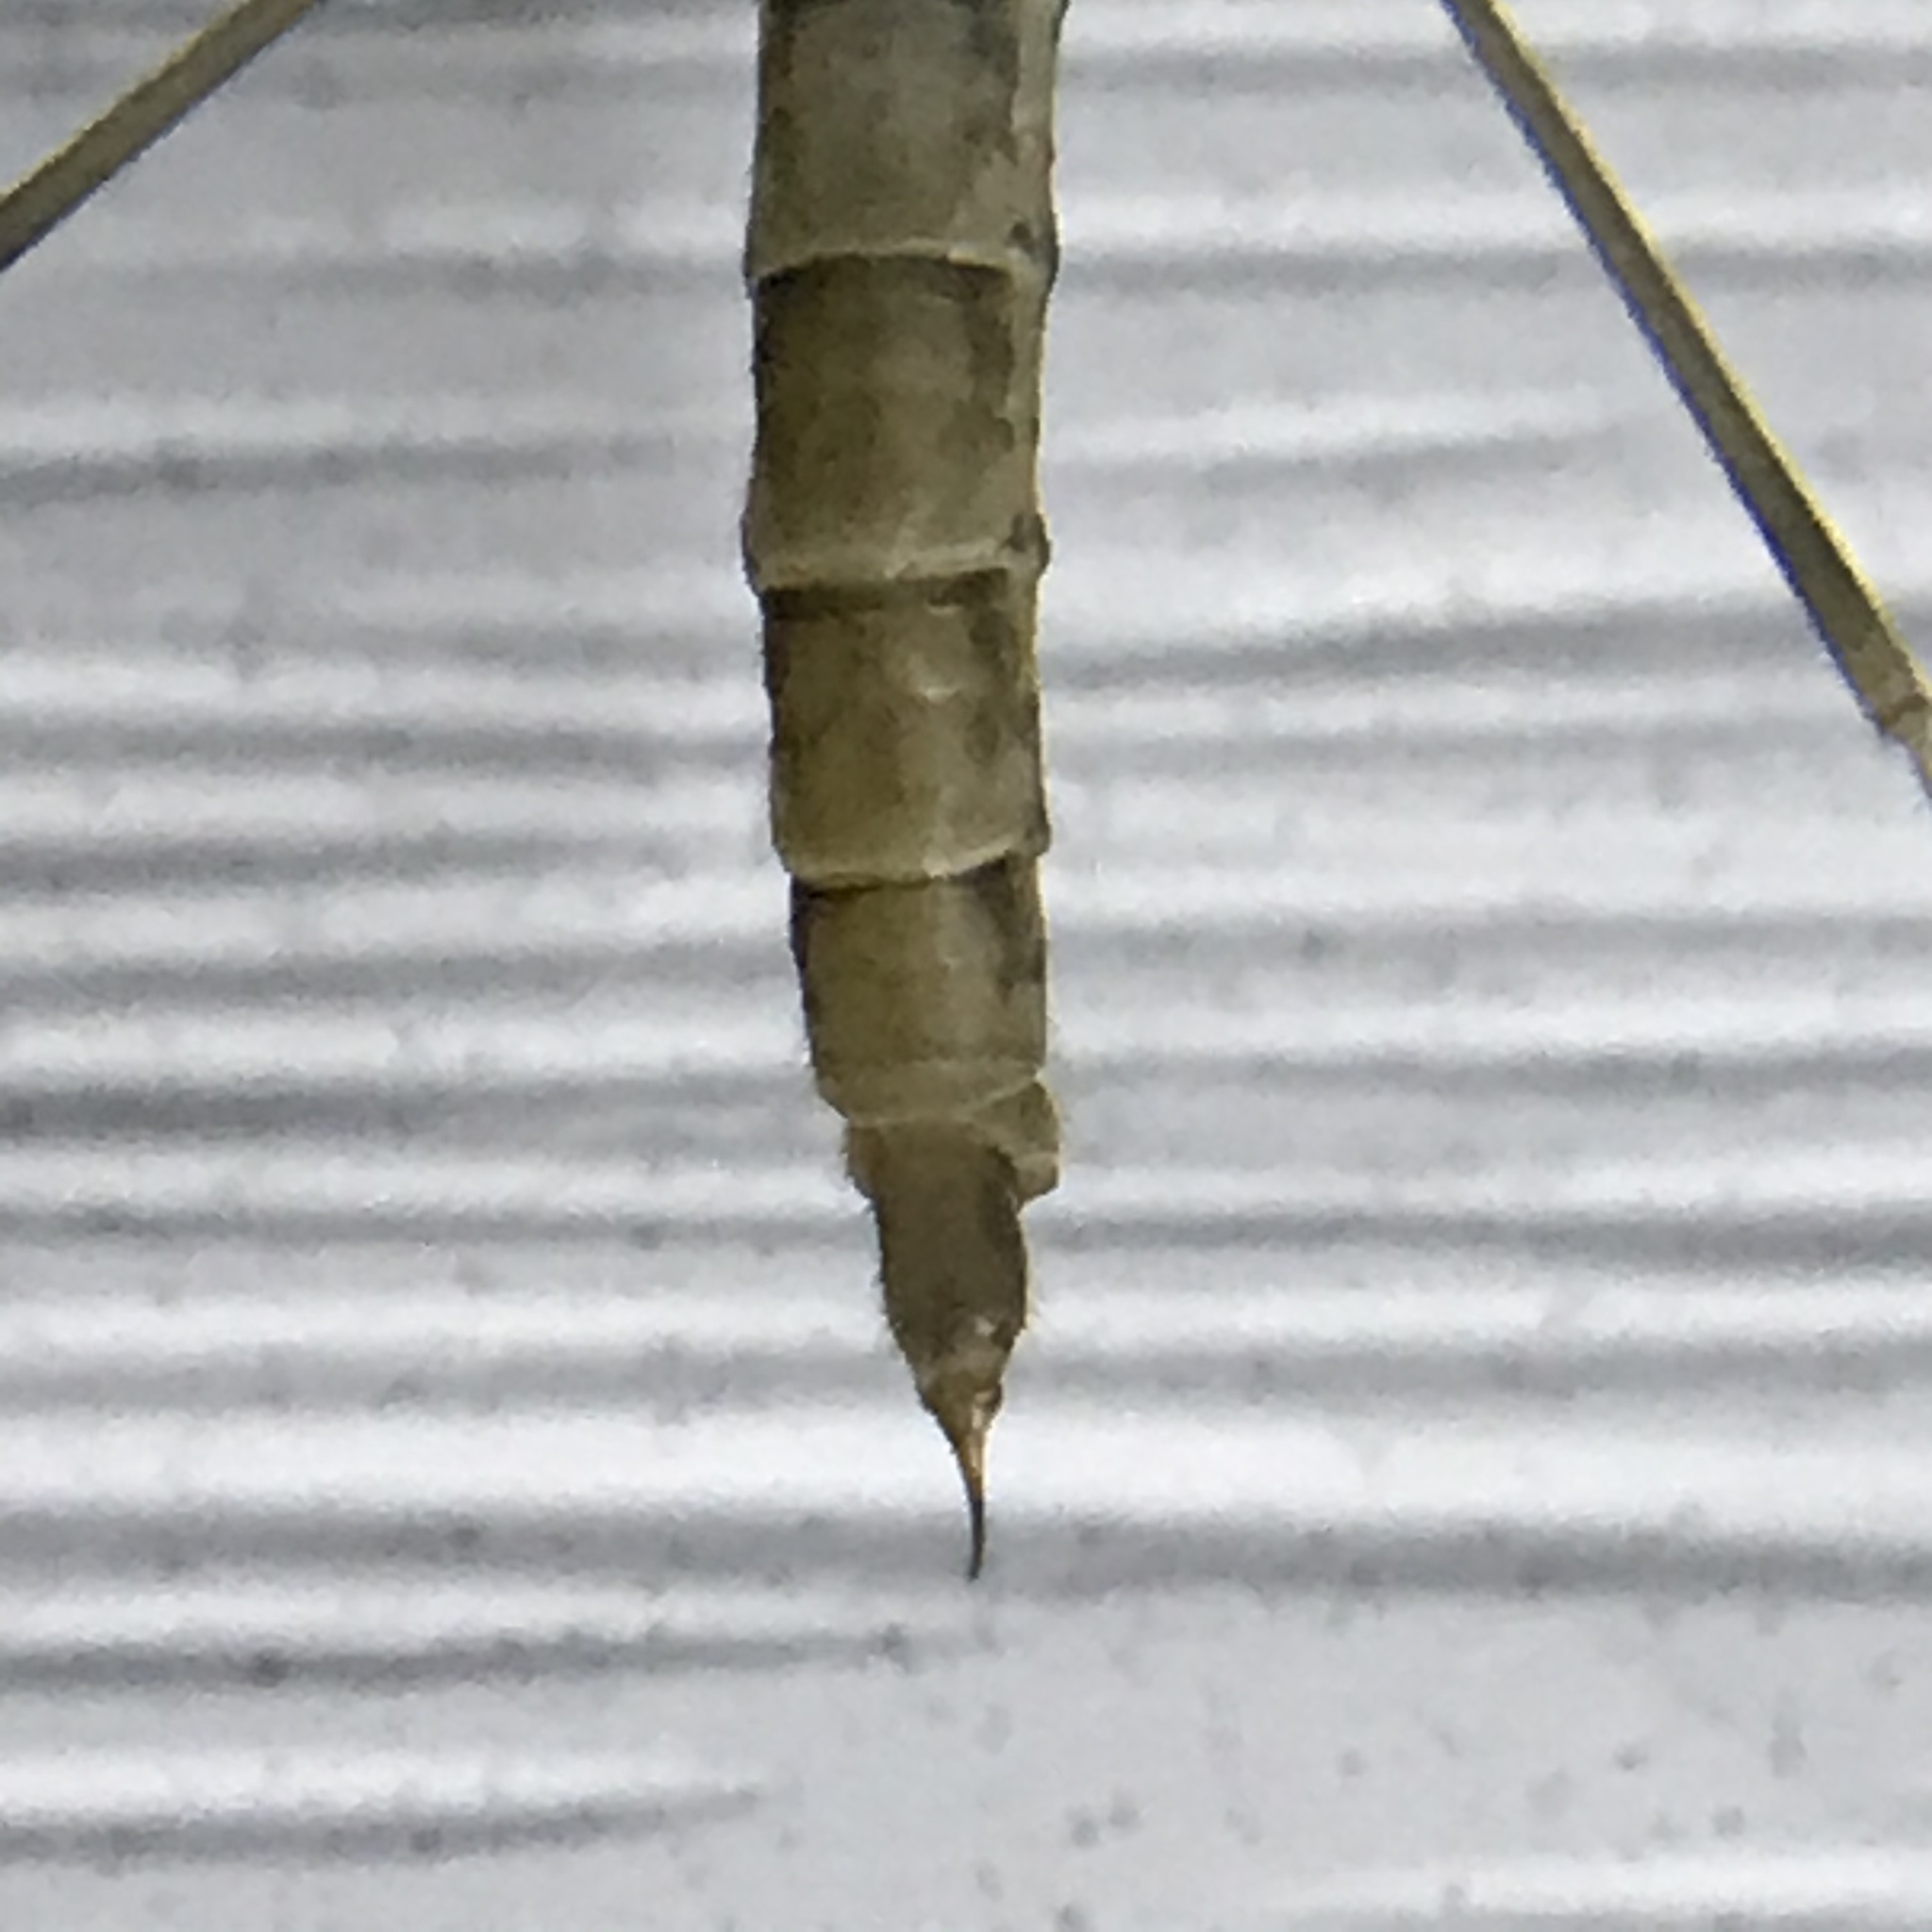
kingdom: Animalia
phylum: Arthropoda
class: Insecta
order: Diptera
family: Limoniidae
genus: Epiphragma
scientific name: Epiphragma solatrix
